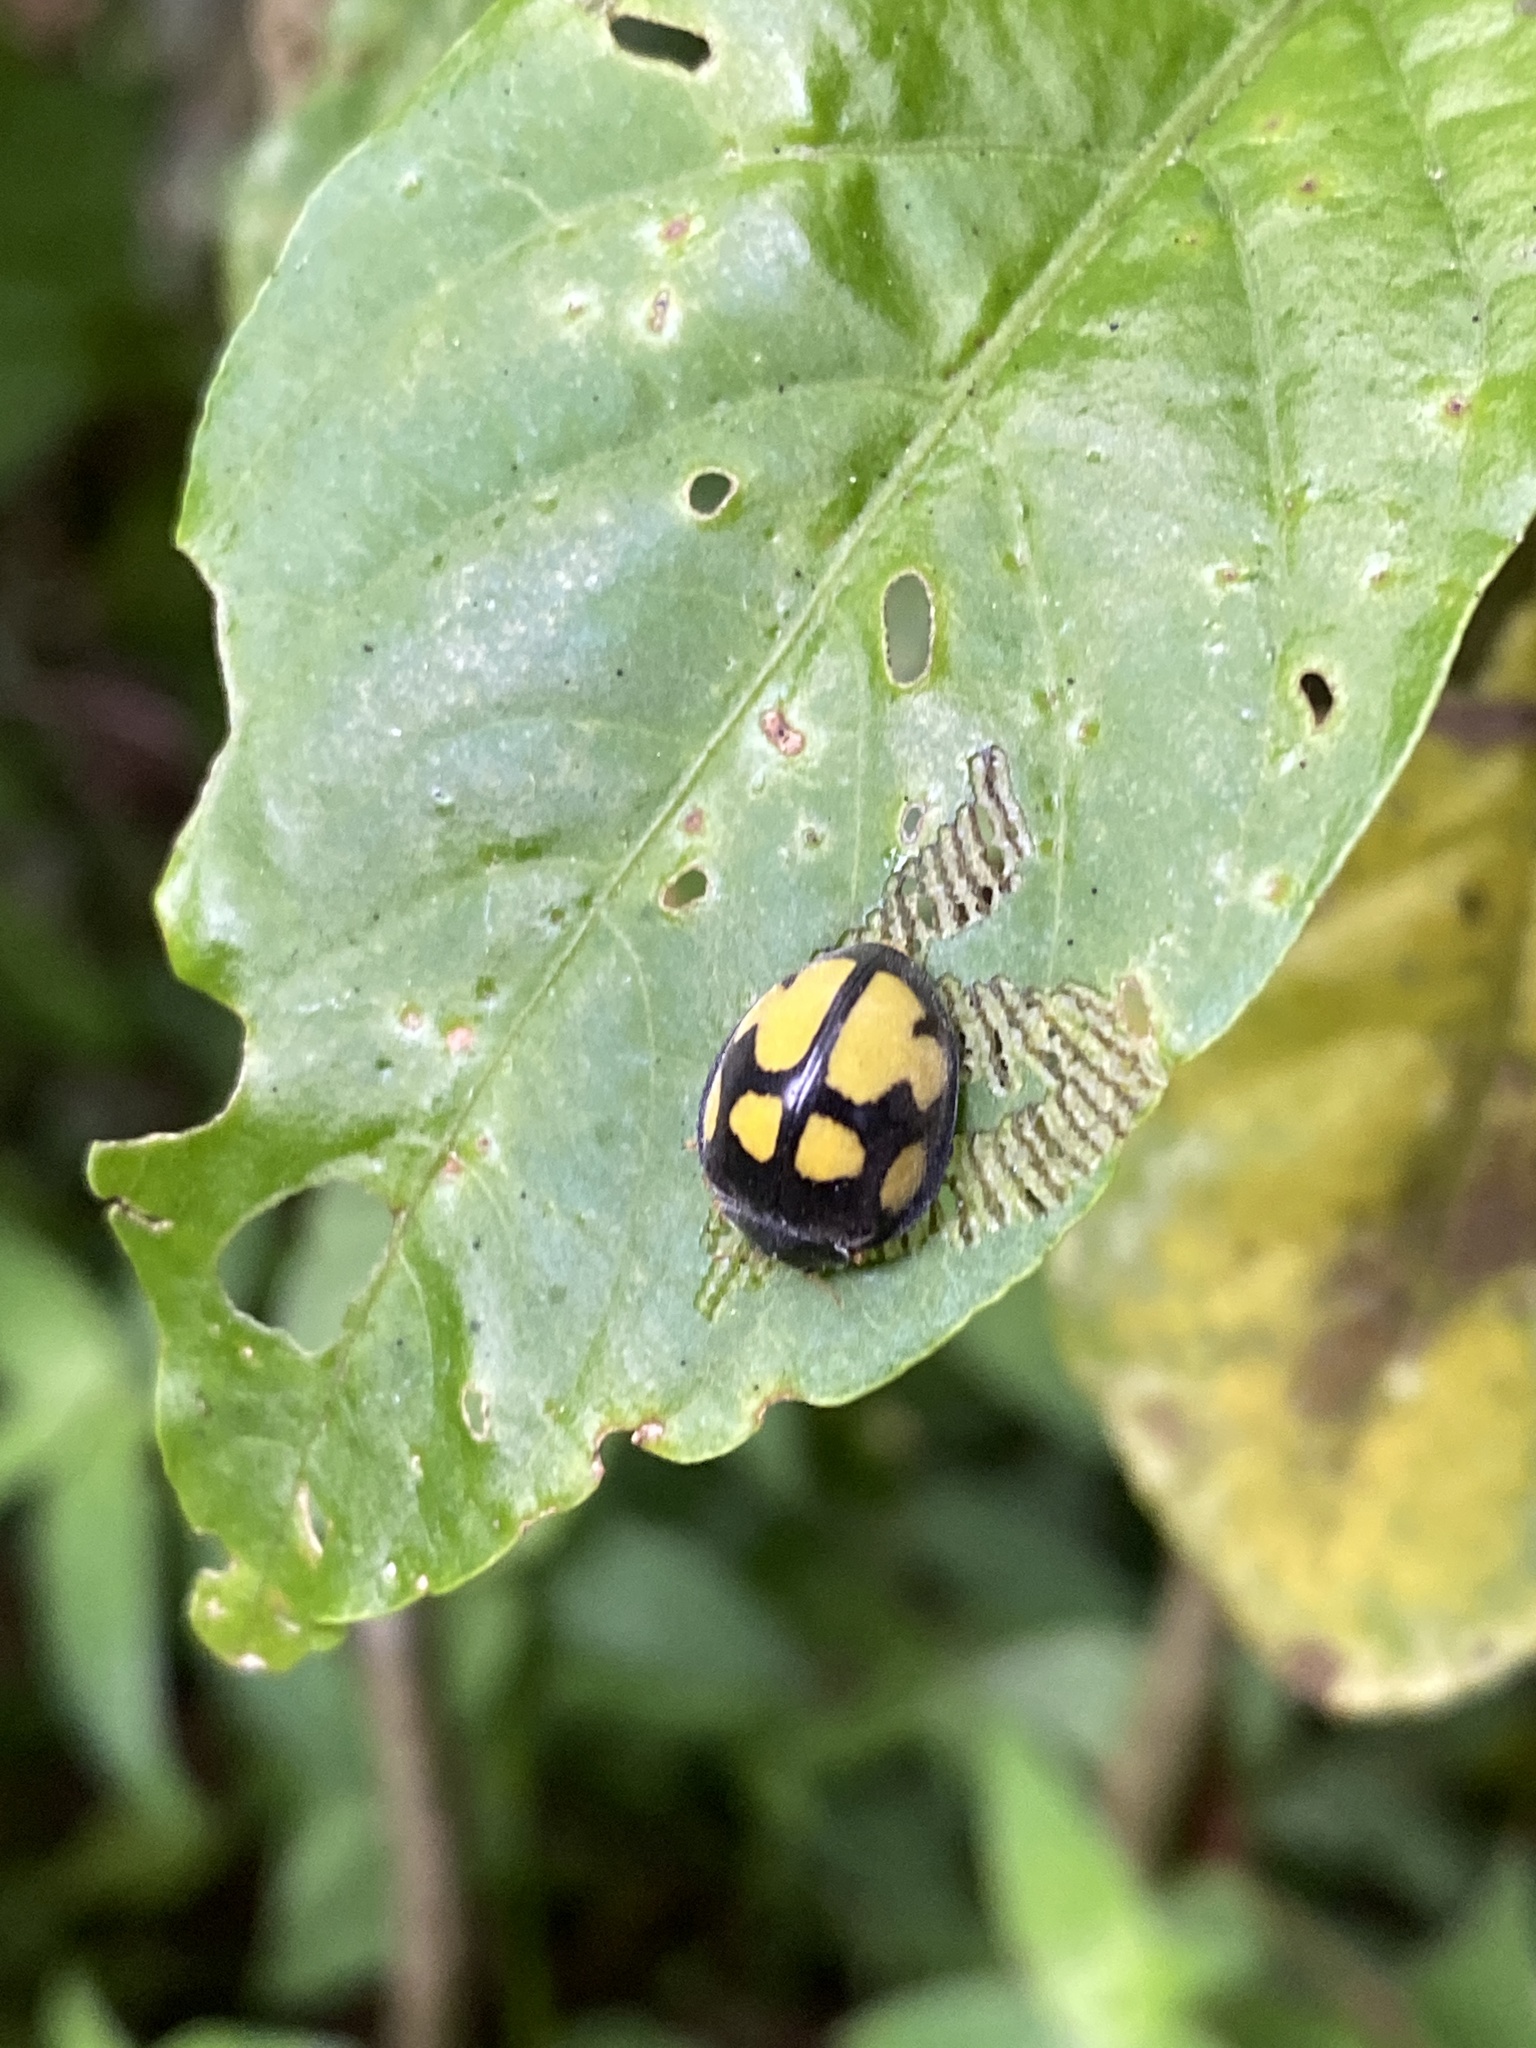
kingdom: Animalia
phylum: Arthropoda
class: Insecta
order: Coleoptera
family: Coccinellidae
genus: Epilachna
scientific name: Epilachna
